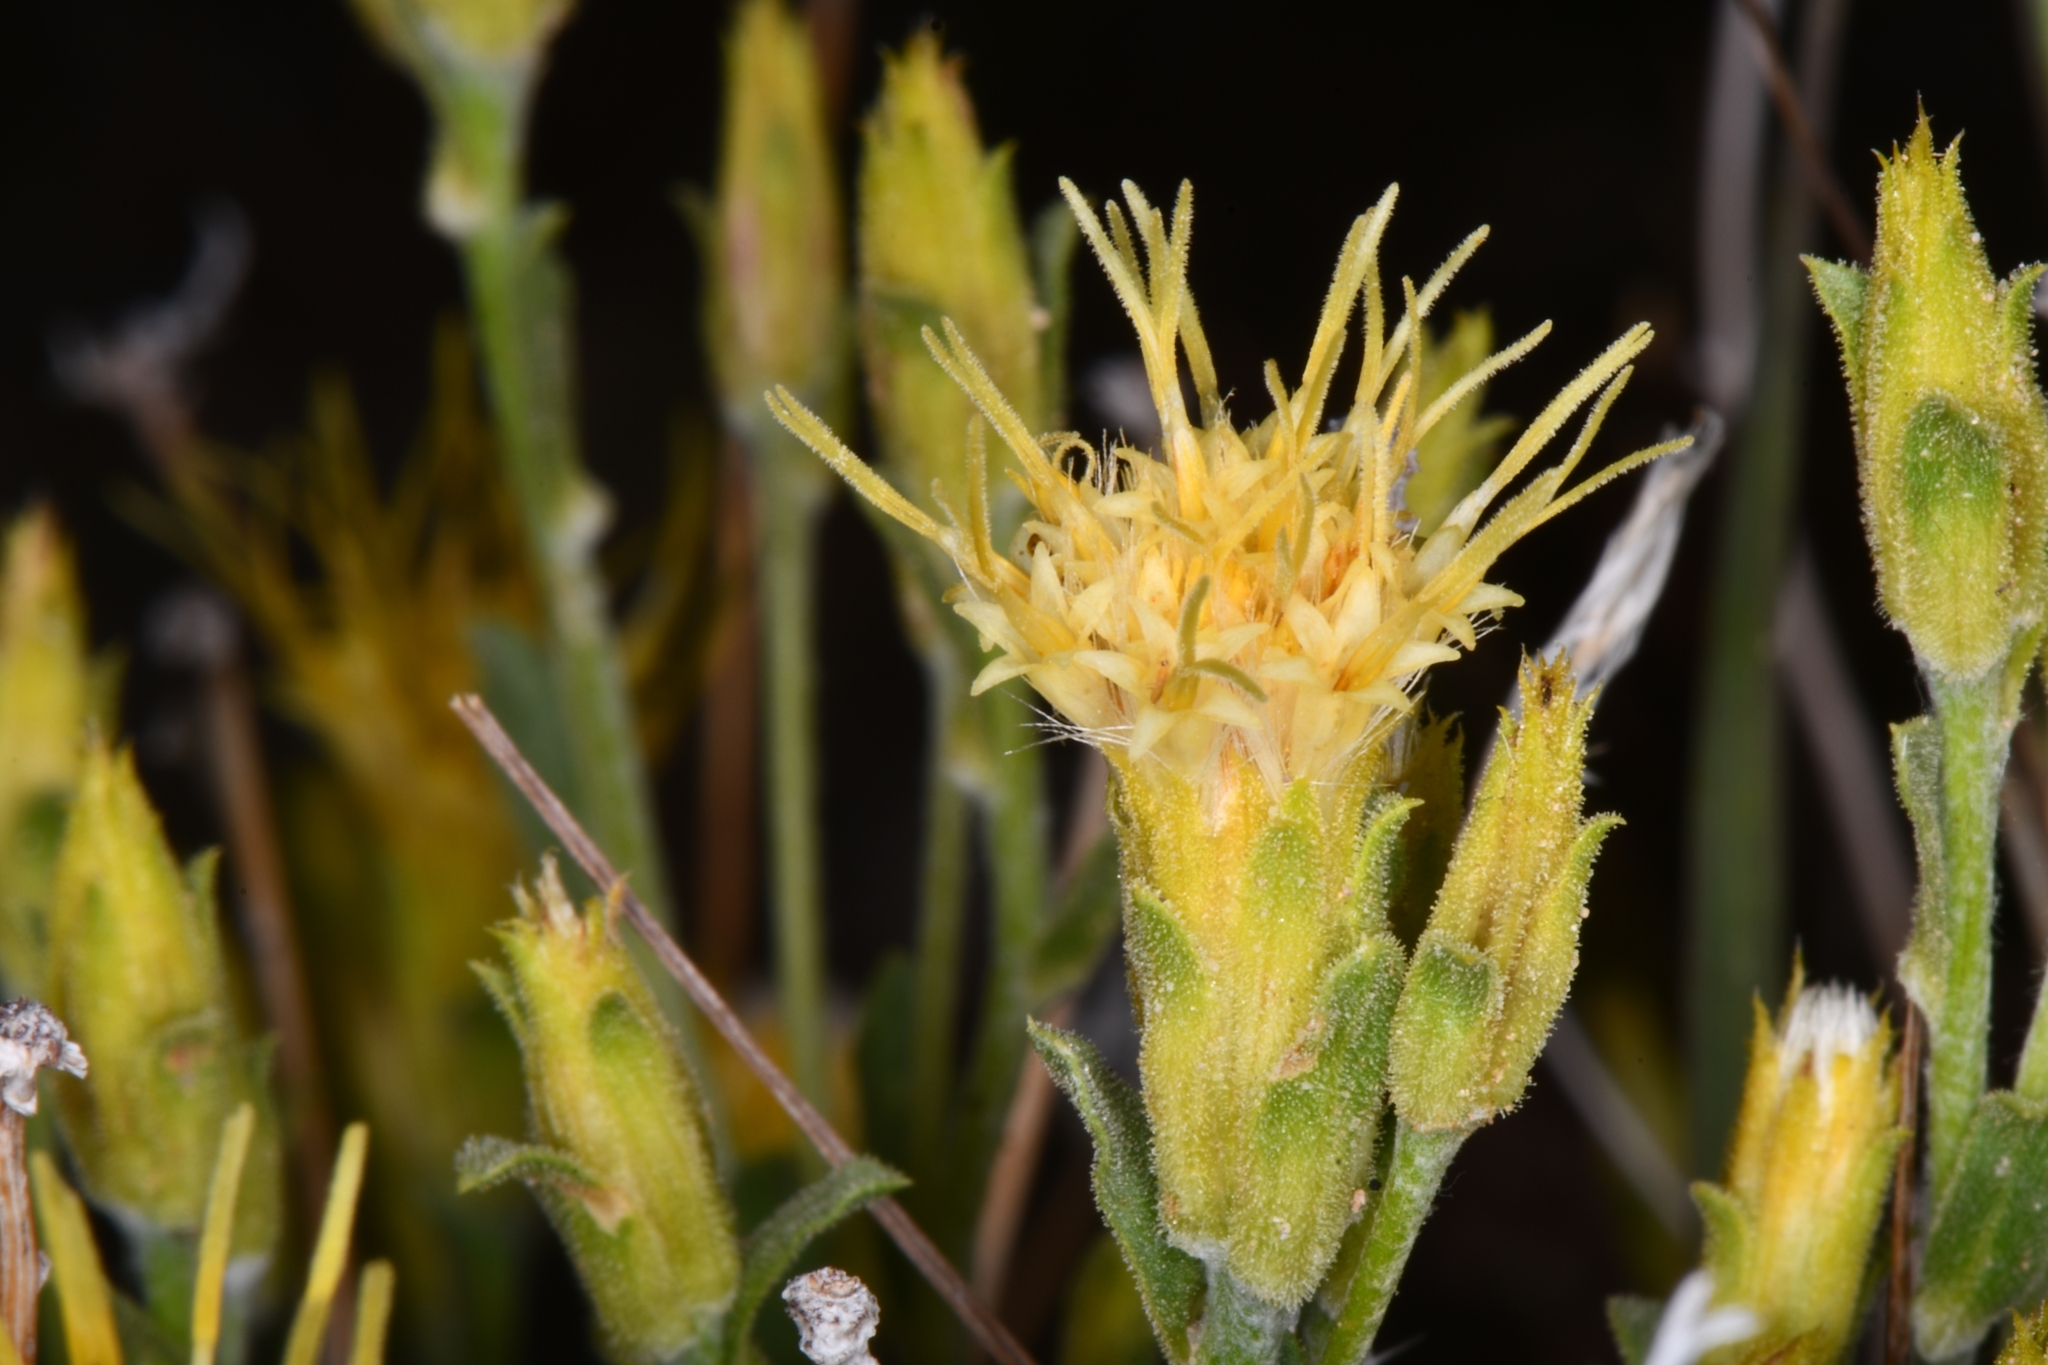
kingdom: Plantae
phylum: Tracheophyta
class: Magnoliopsida
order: Asterales
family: Asteraceae
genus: Ericameria
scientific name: Ericameria discoidea
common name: Sharp-scale goldenweed
